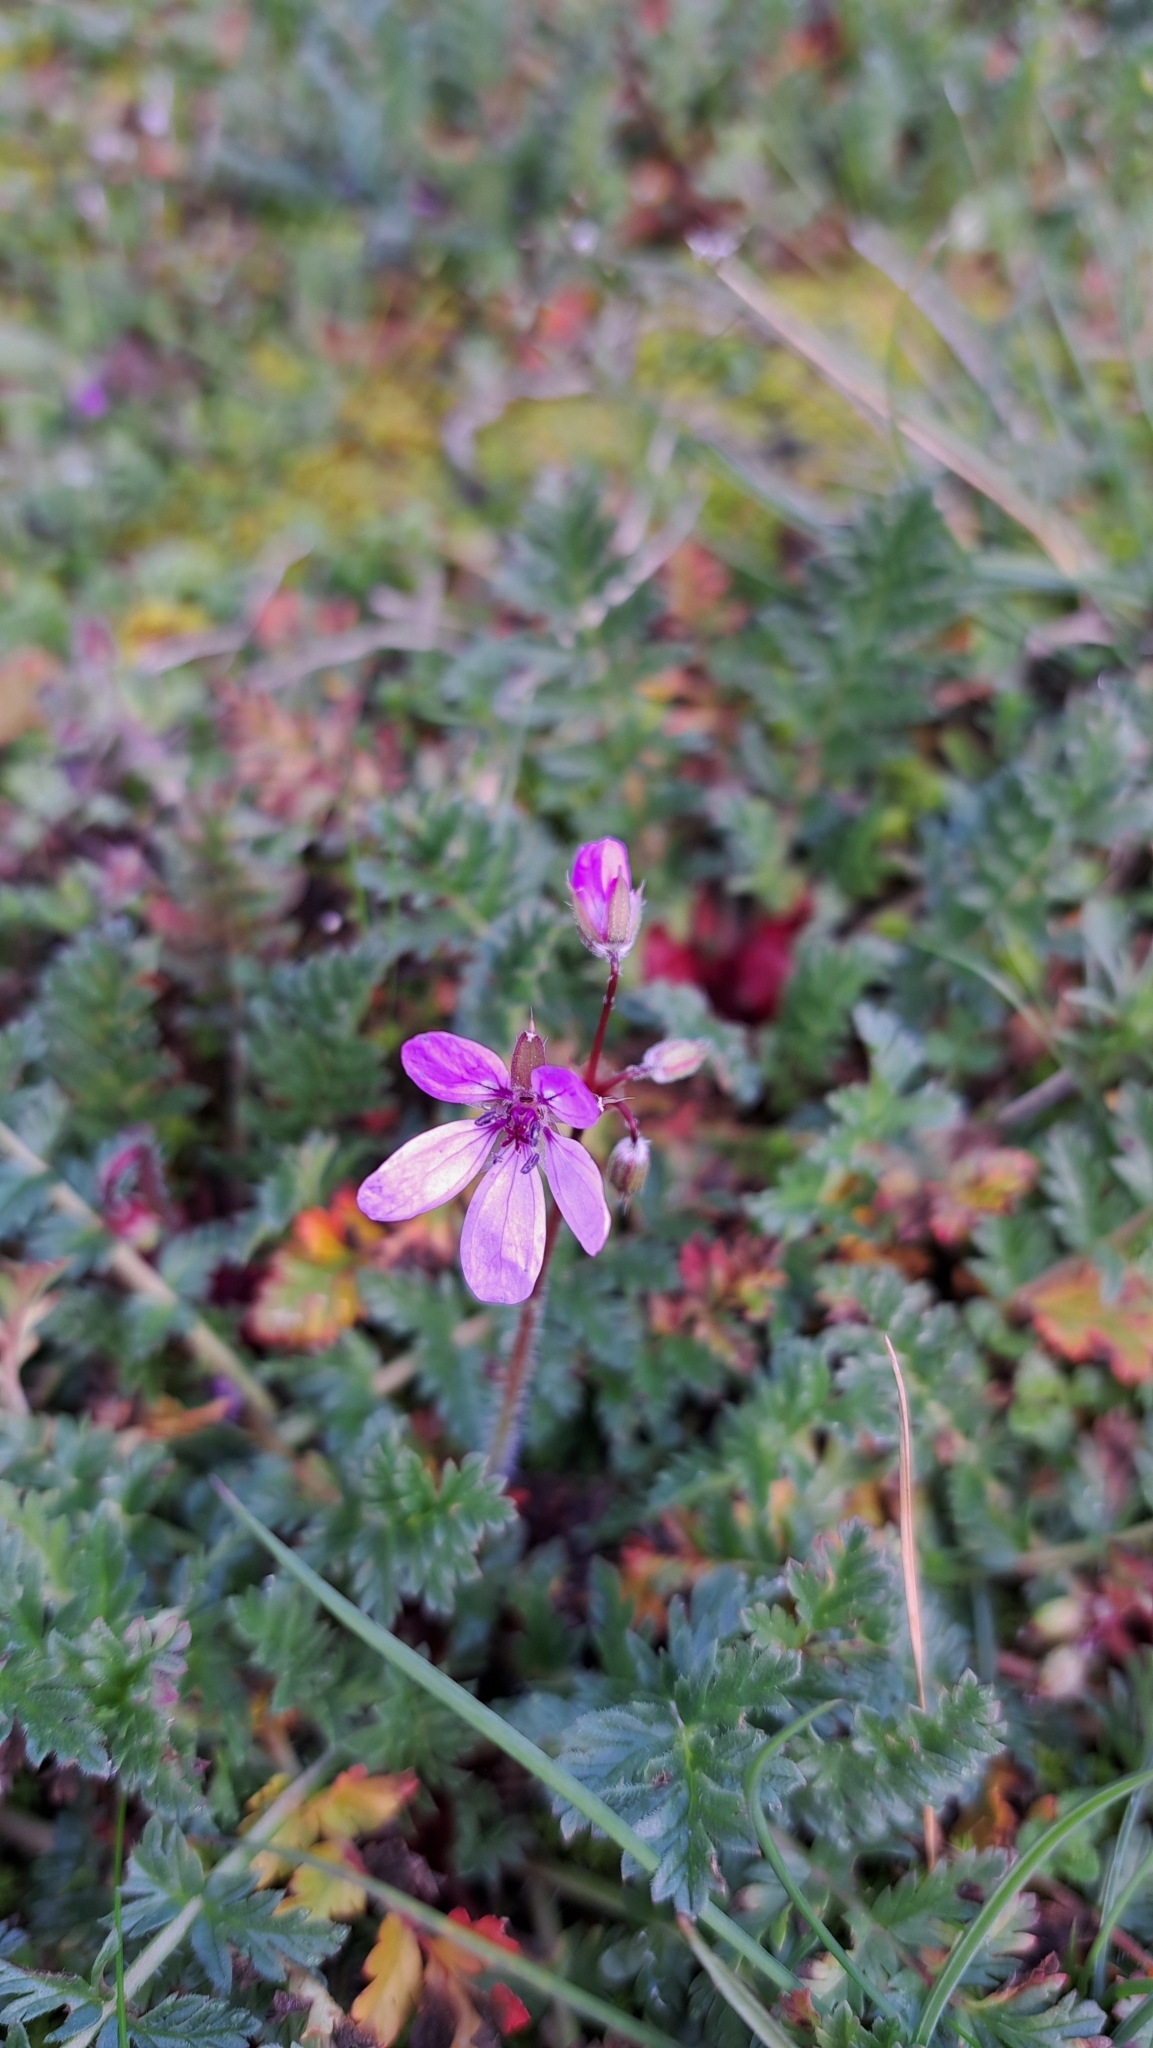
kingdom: Plantae
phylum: Tracheophyta
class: Magnoliopsida
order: Geraniales
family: Geraniaceae
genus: Erodium
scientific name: Erodium cicutarium
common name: Common stork's-bill
